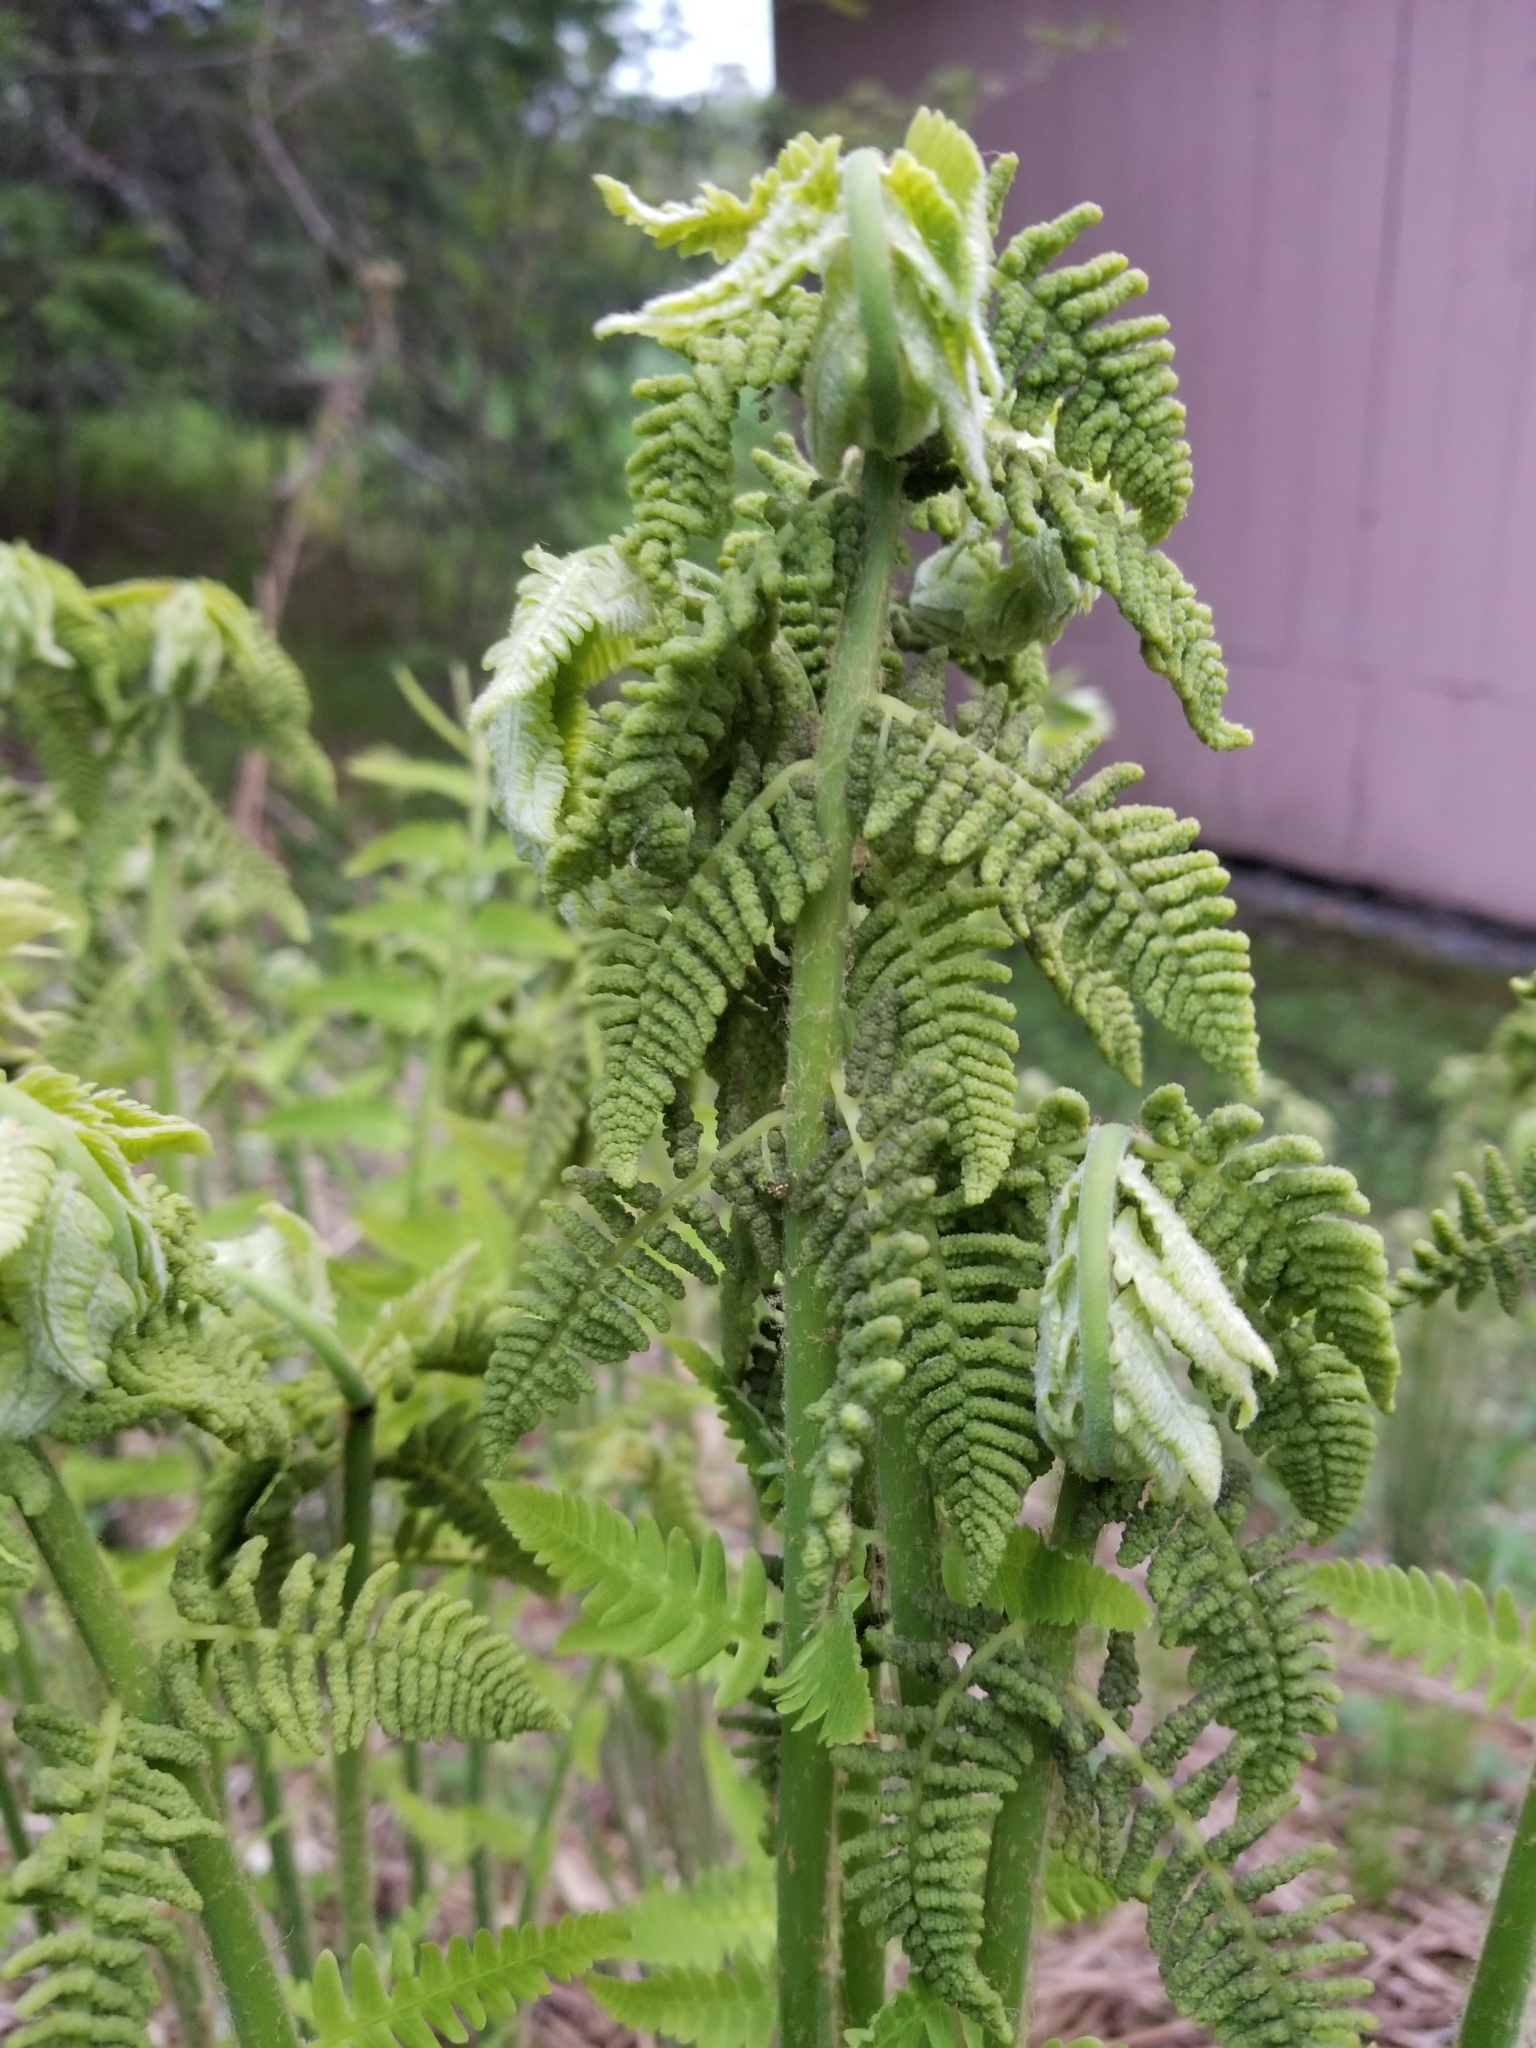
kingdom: Plantae
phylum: Tracheophyta
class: Polypodiopsida
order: Osmundales
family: Osmundaceae
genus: Claytosmunda
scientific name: Claytosmunda claytoniana
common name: Clayton's fern
